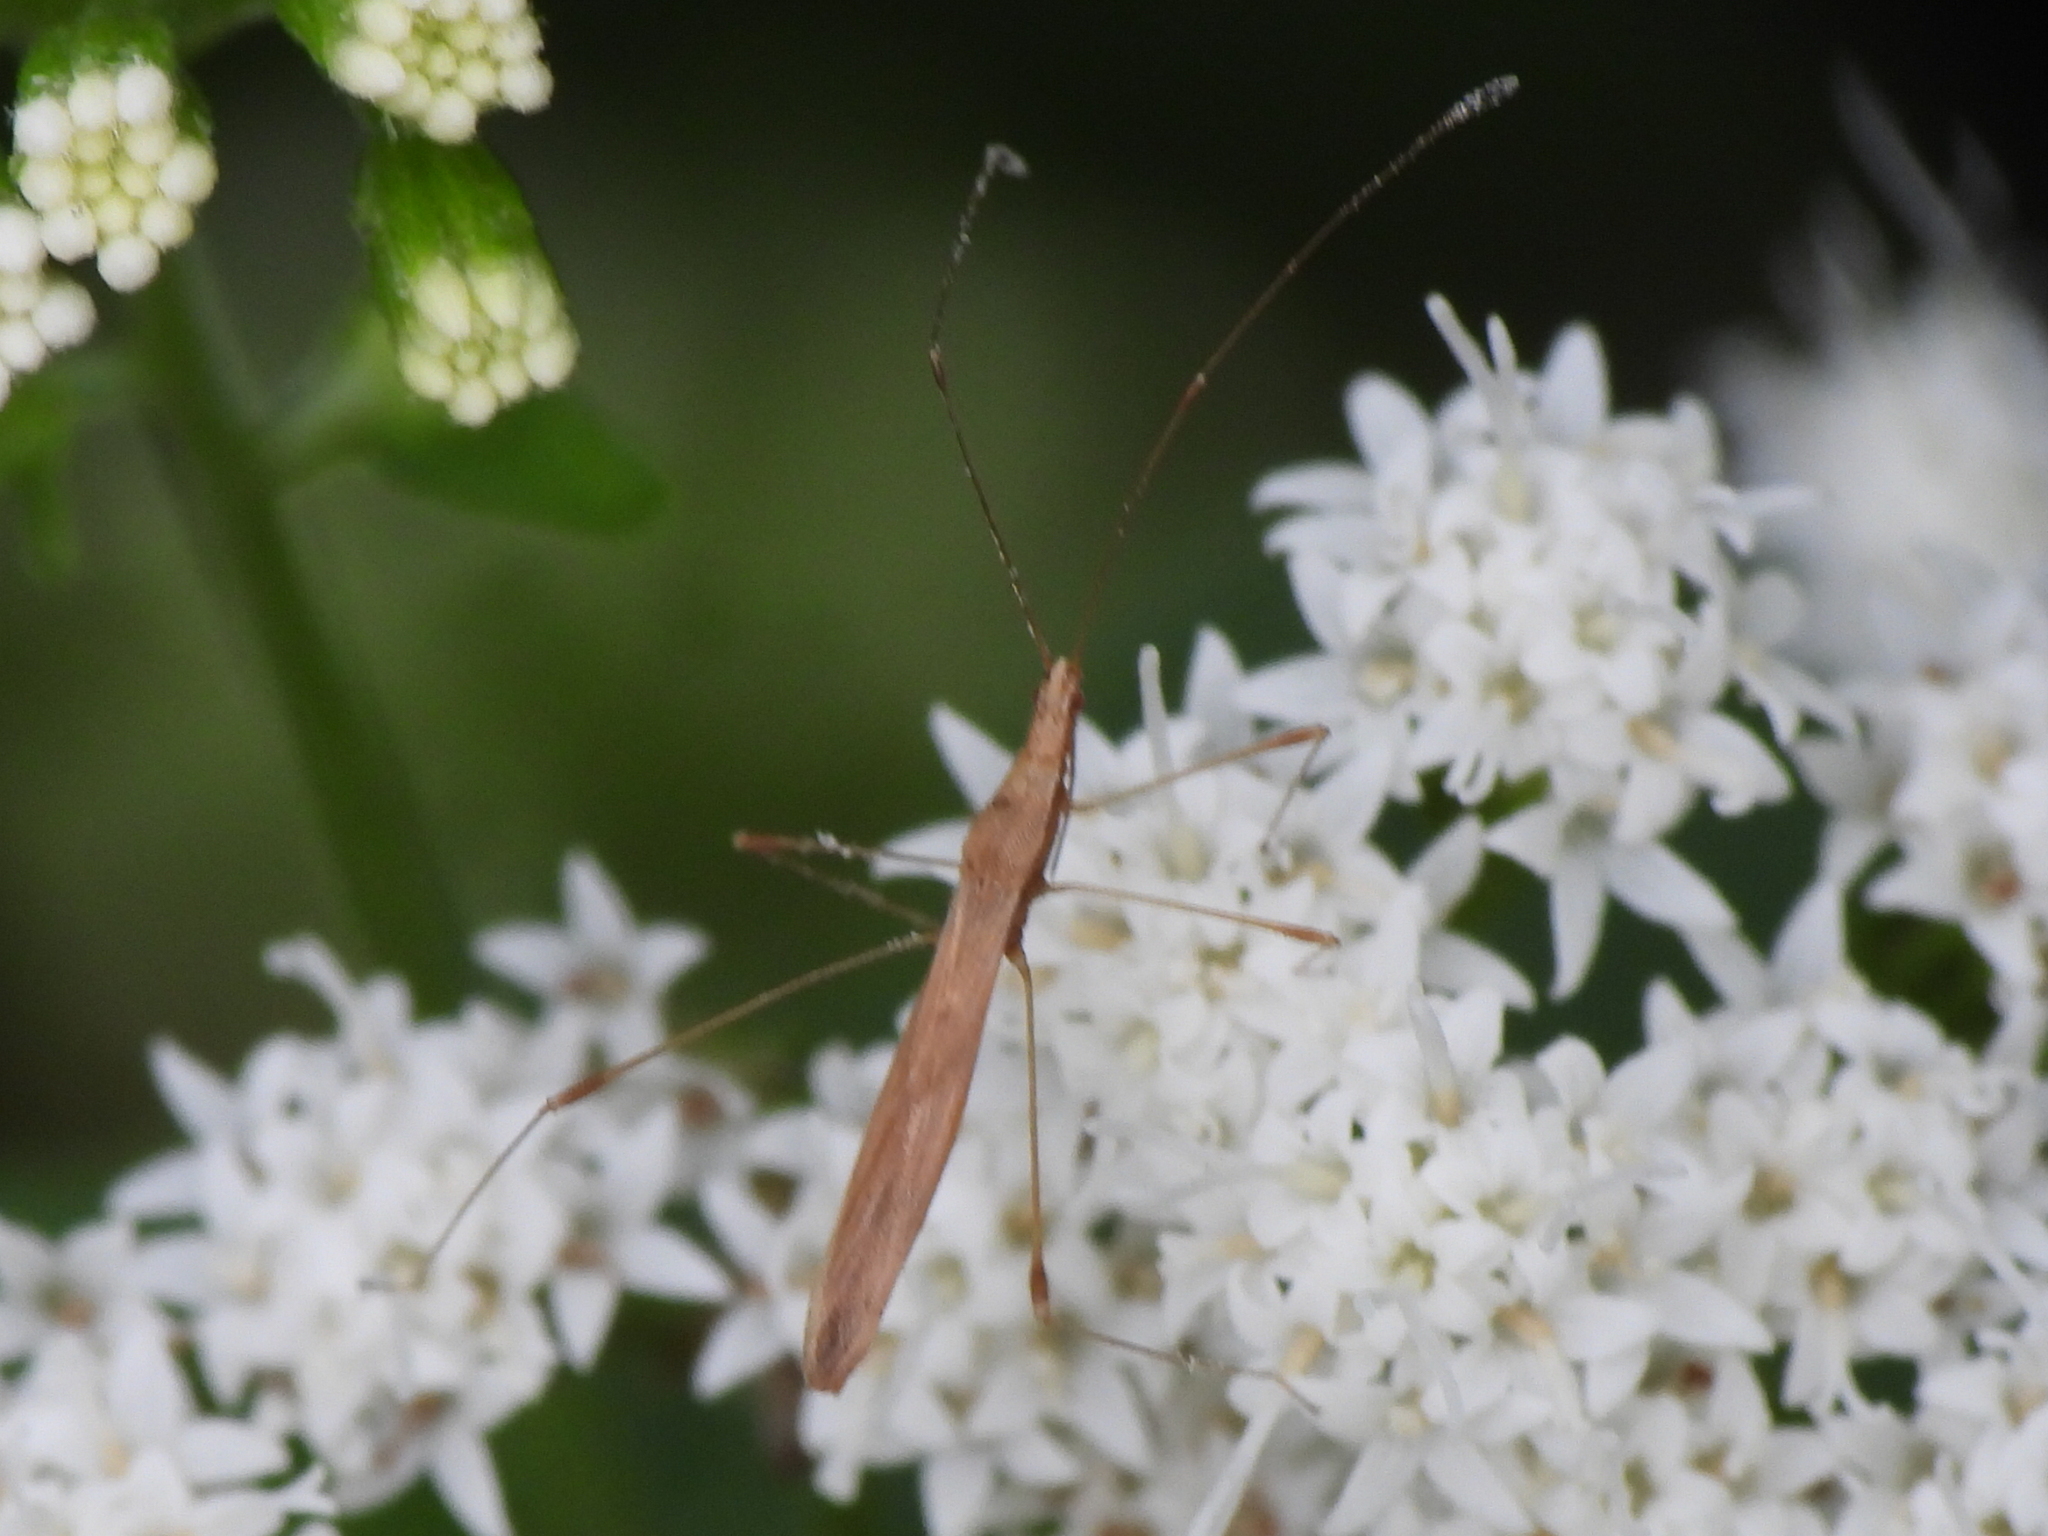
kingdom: Animalia
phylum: Arthropoda
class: Insecta
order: Hemiptera
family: Berytidae
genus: Neoneides
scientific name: Neoneides muticus
